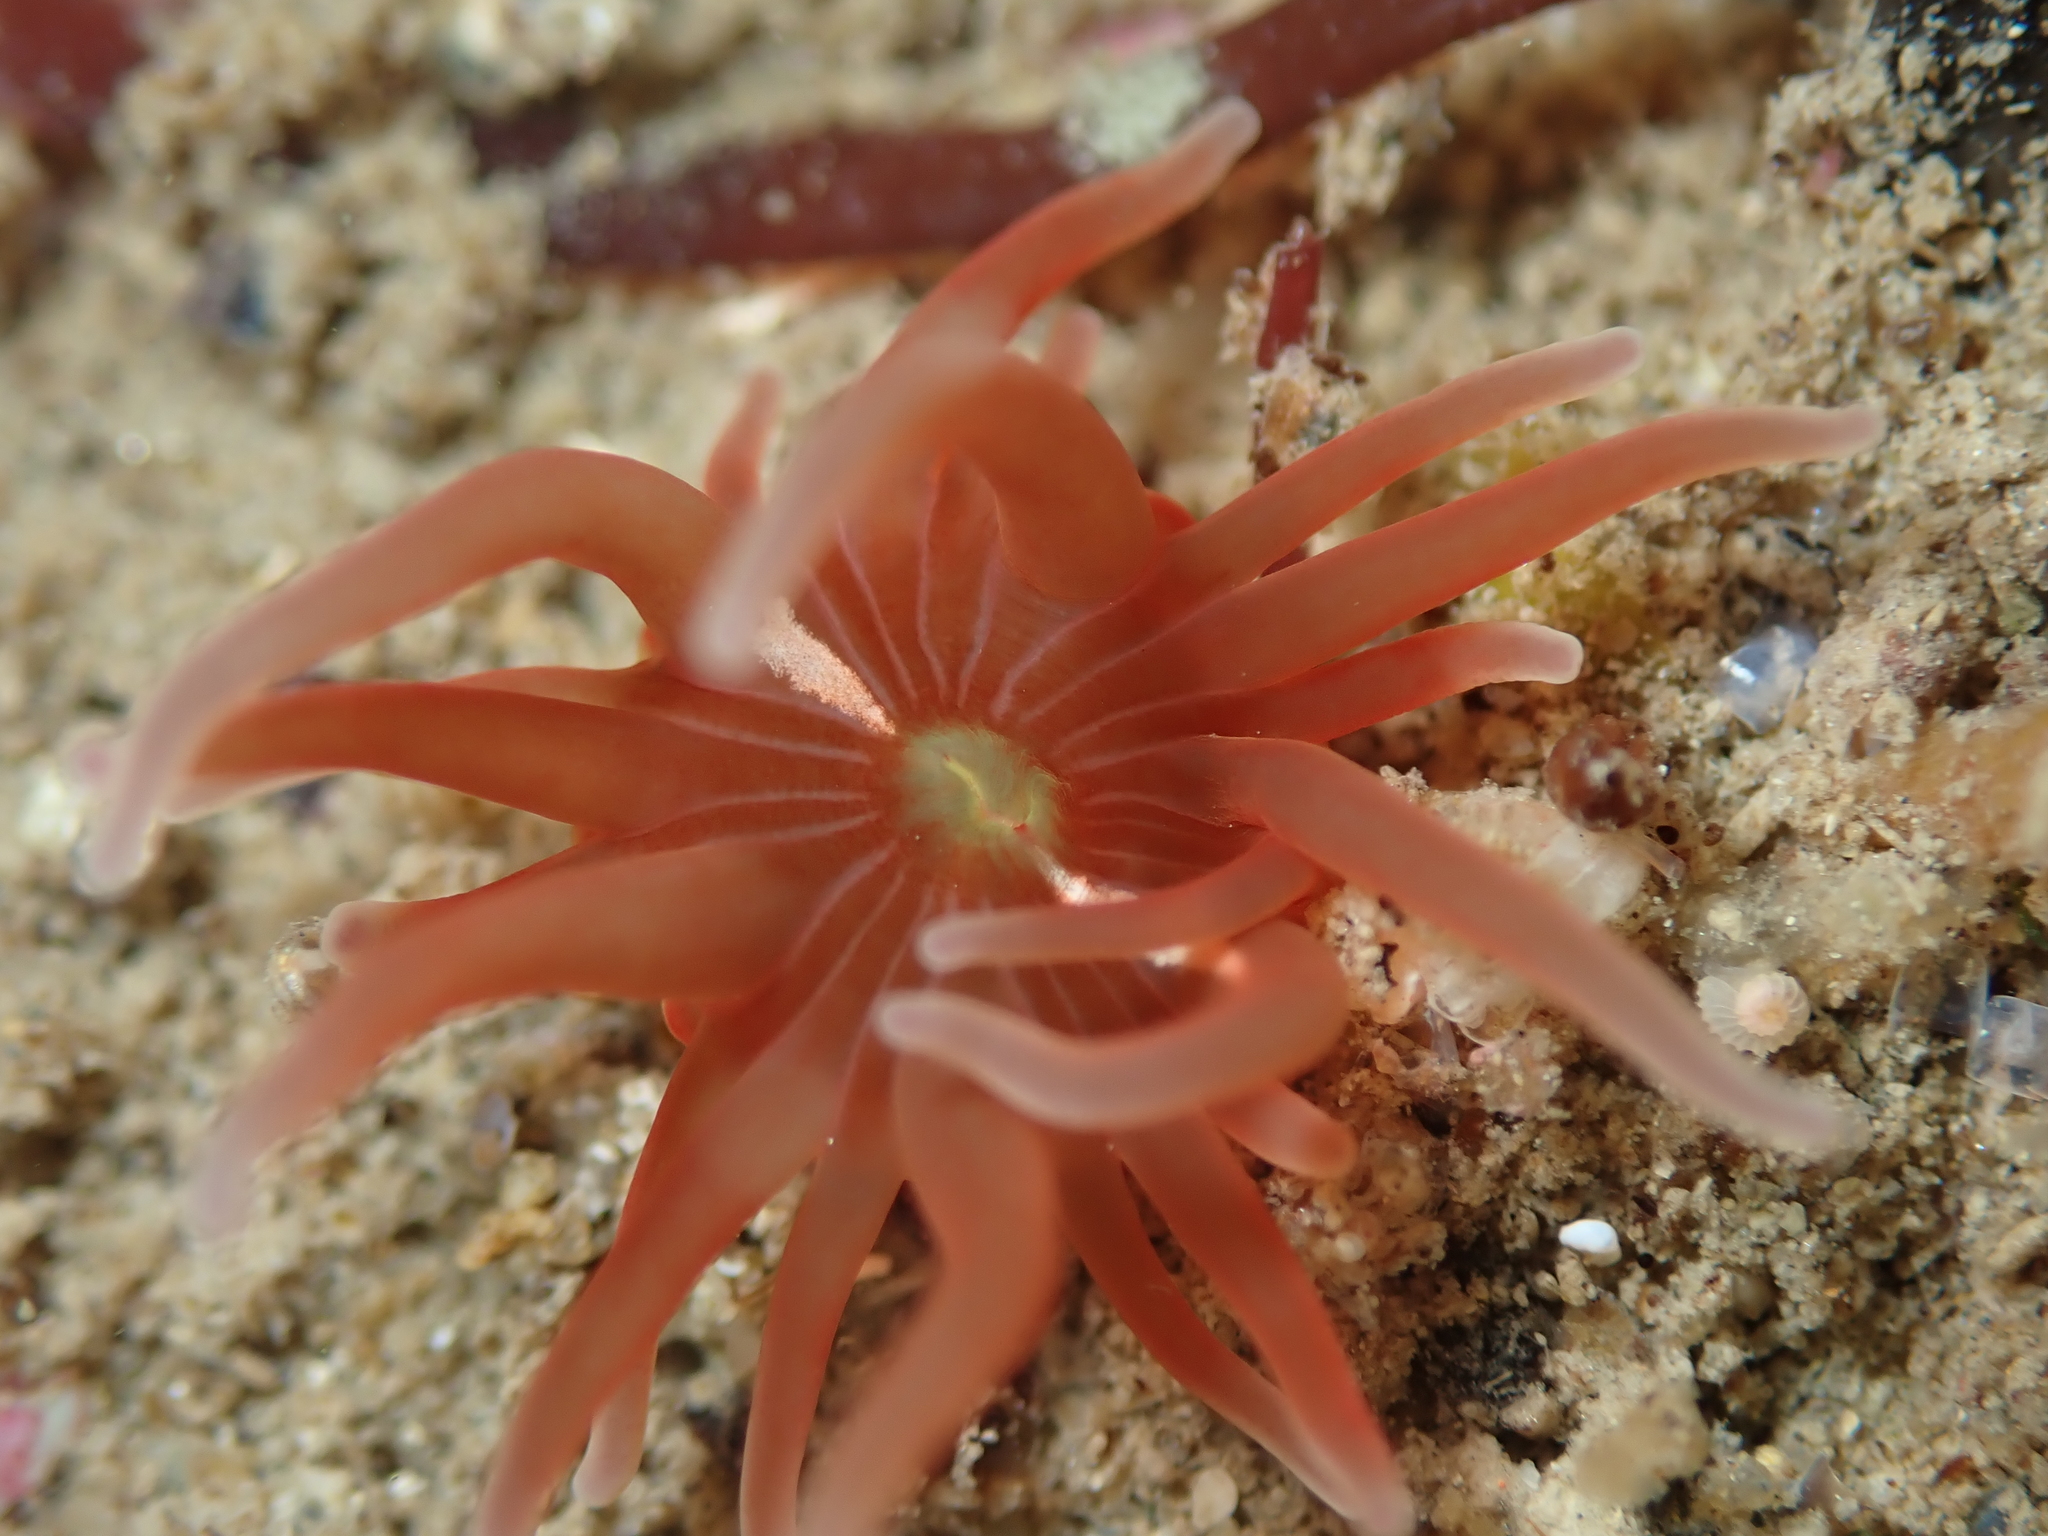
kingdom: Animalia
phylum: Cnidaria
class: Anthozoa
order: Actiniaria
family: Actiniidae
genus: Epiactis
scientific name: Epiactis thompsoni
